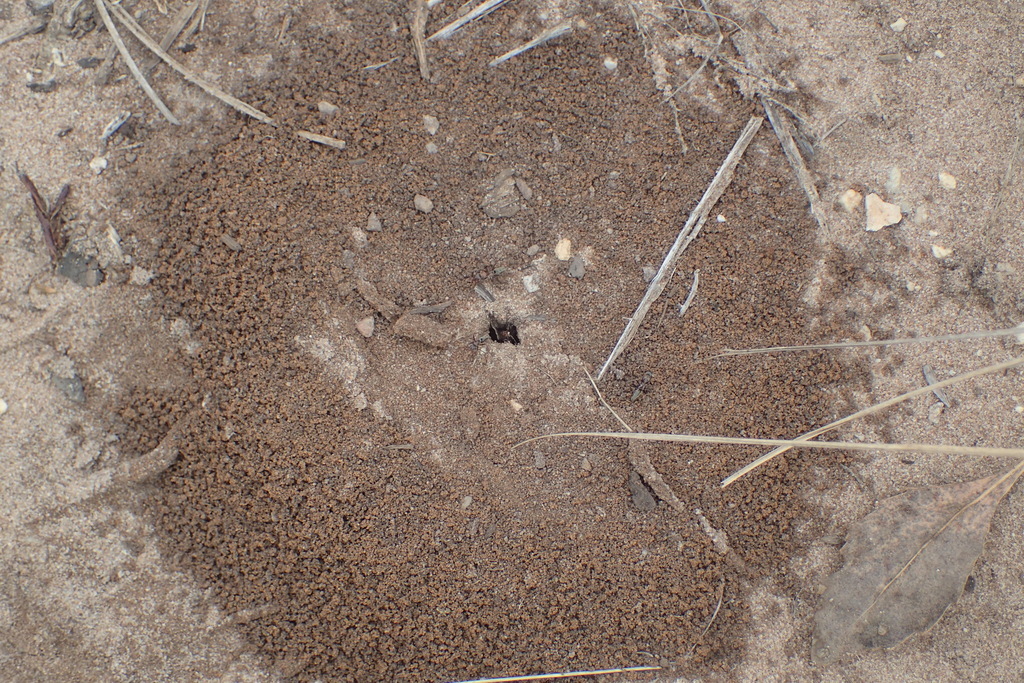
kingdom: Animalia
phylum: Arthropoda
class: Insecta
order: Hymenoptera
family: Formicidae
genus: Camponotus
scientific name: Camponotus vestitus
